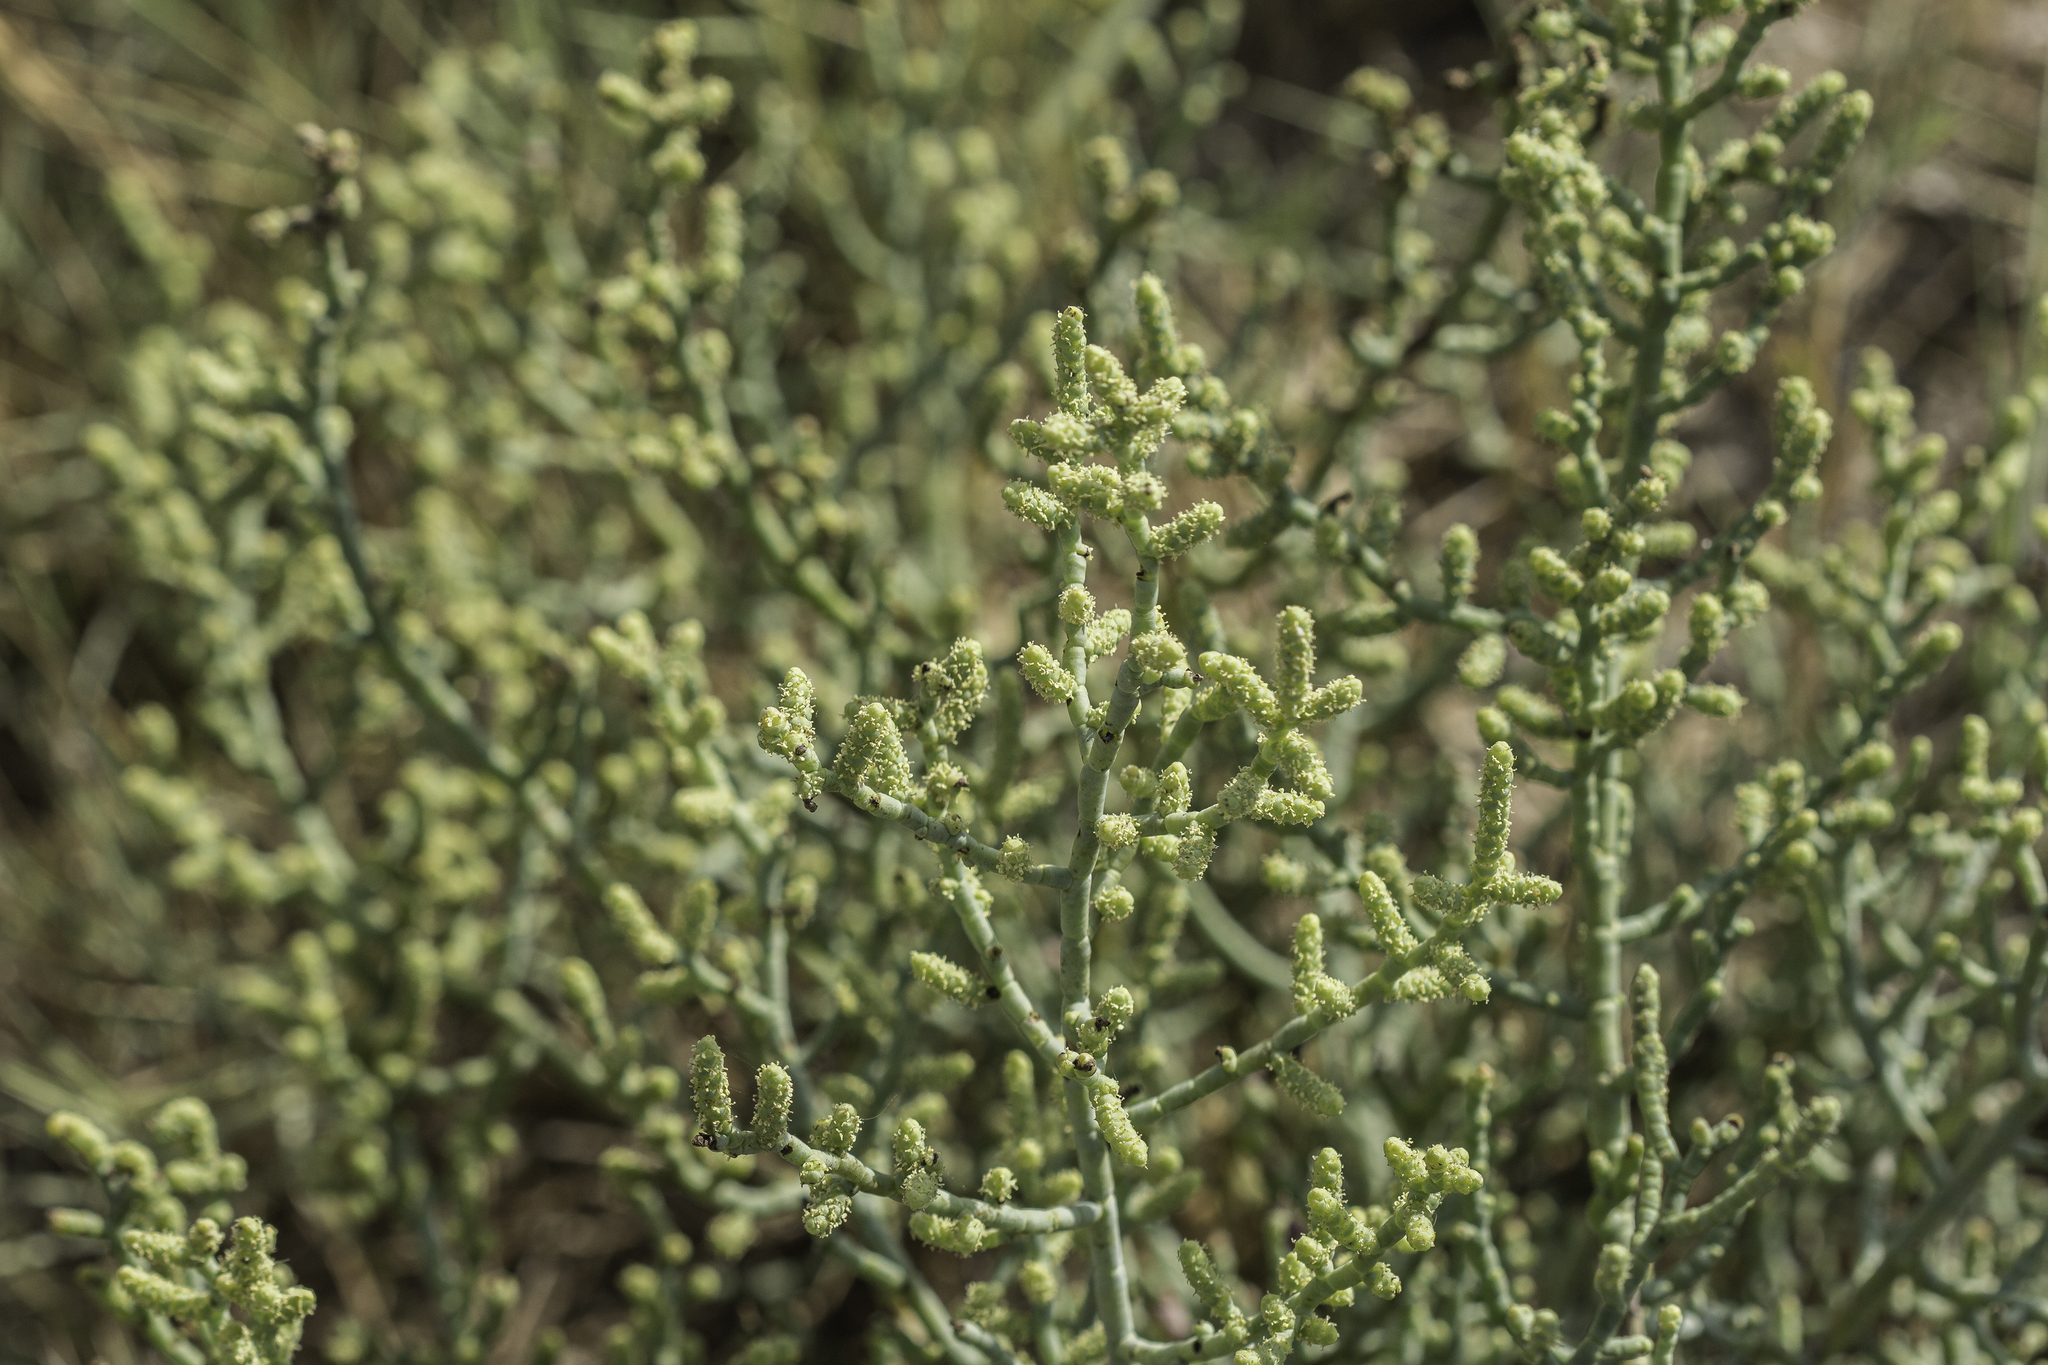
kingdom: Plantae
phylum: Tracheophyta
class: Magnoliopsida
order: Caryophyllales
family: Amaranthaceae
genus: Allenrolfea
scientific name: Allenrolfea occidentalis
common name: Iodine-bush
